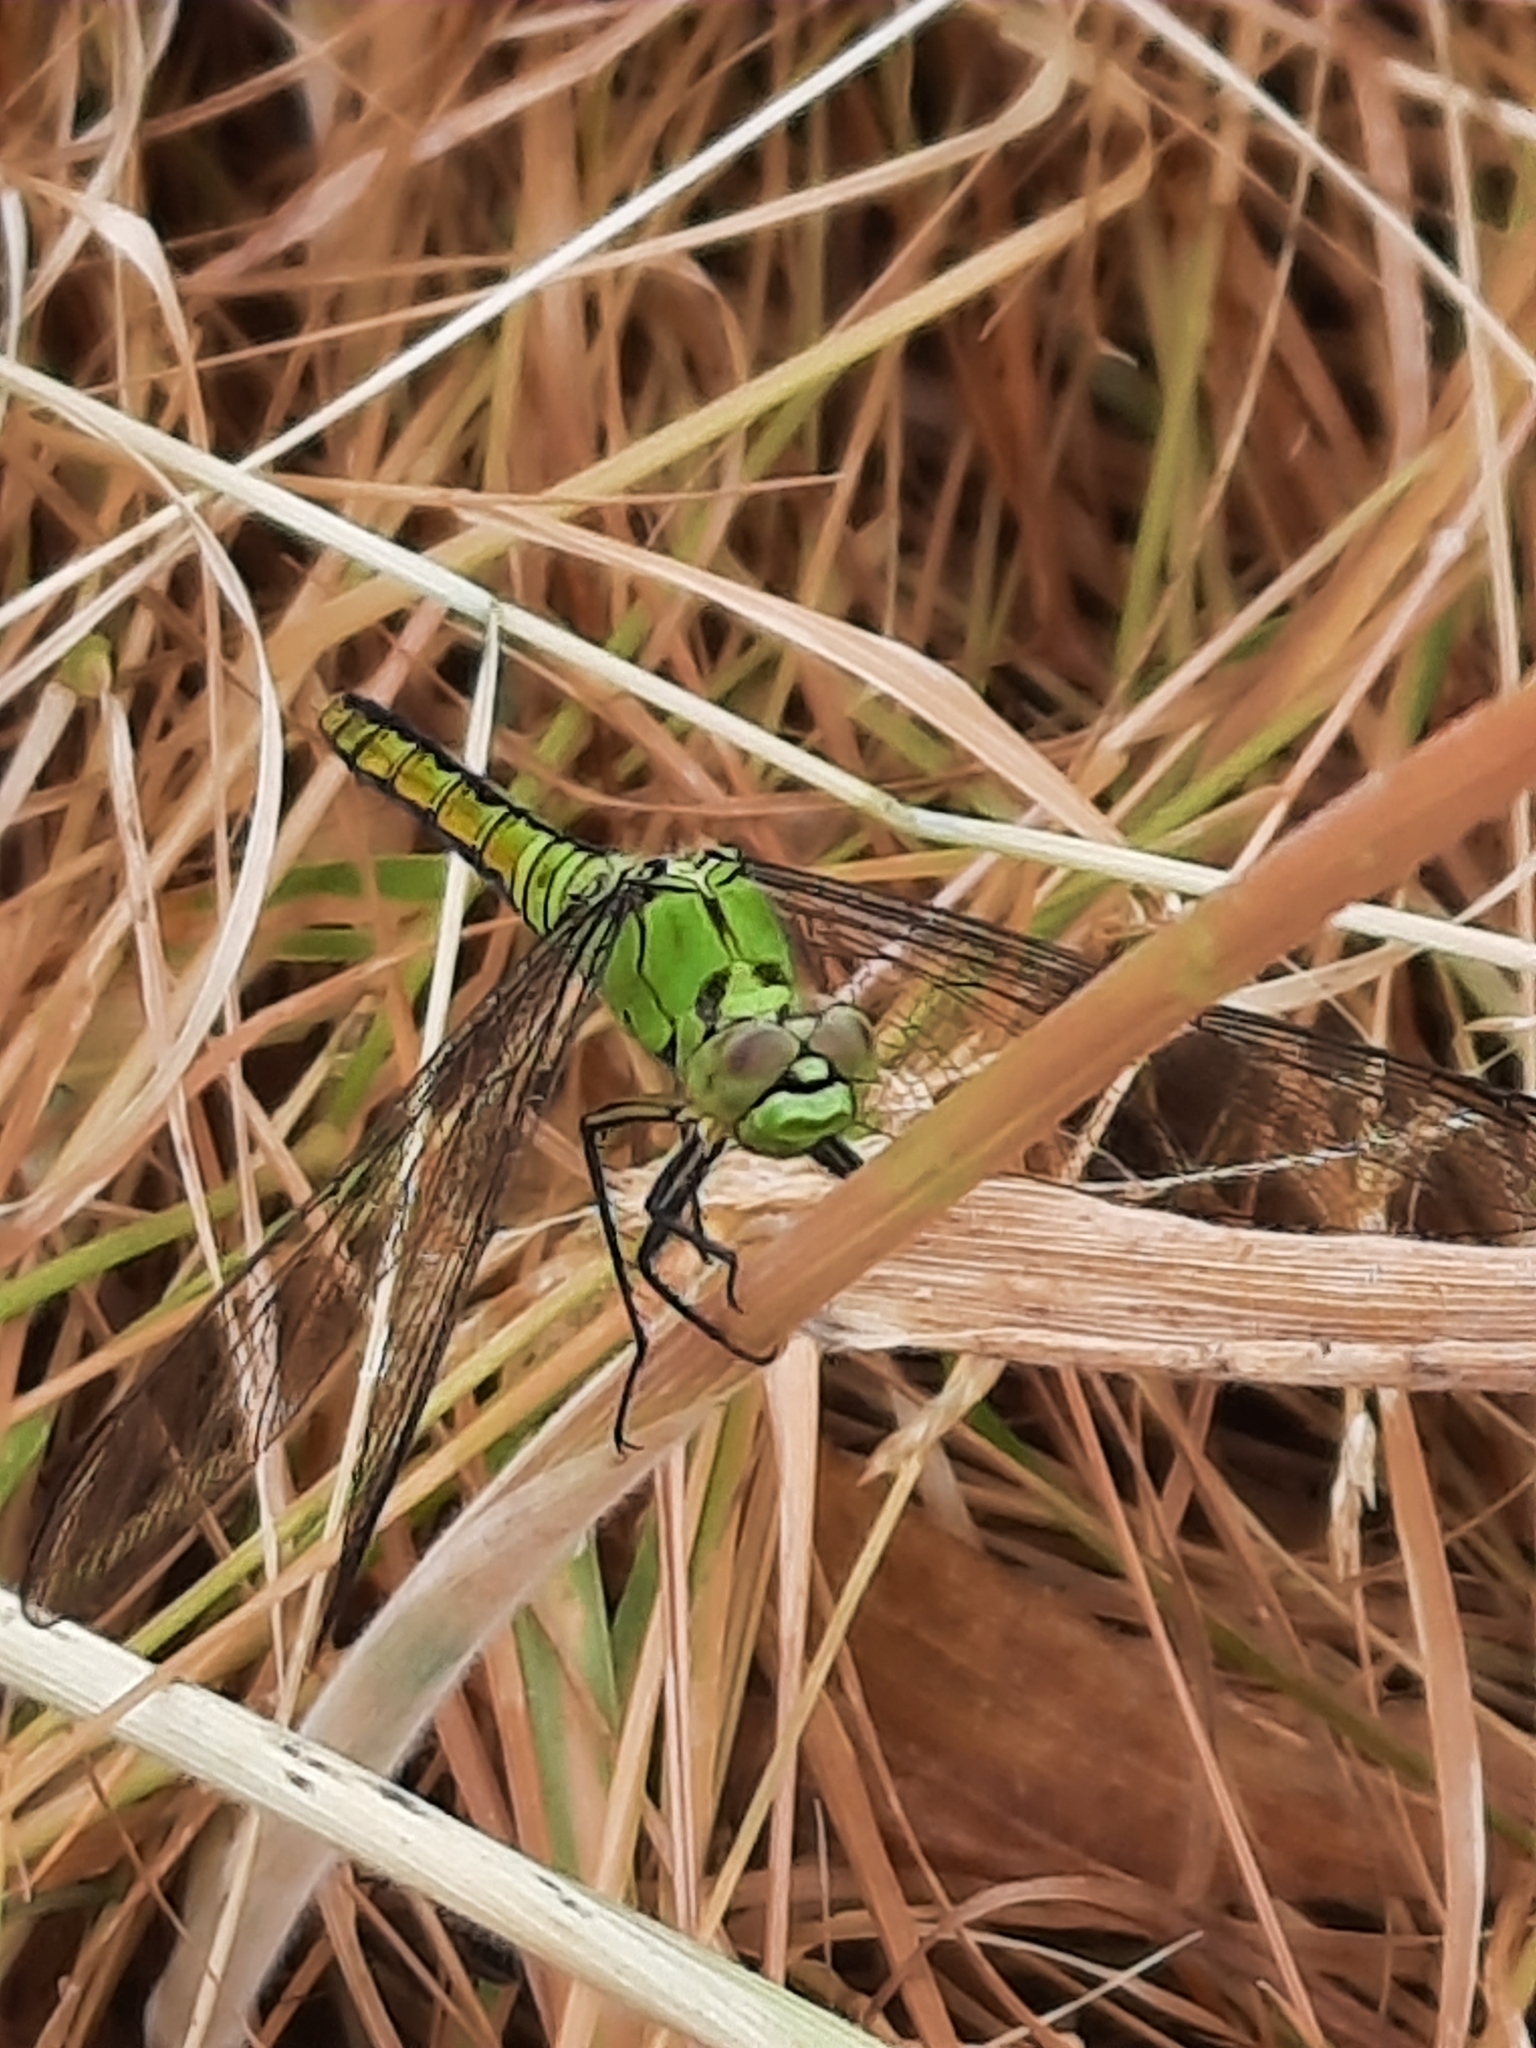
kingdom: Animalia
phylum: Arthropoda
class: Insecta
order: Odonata
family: Libellulidae
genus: Erythemis
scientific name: Erythemis collocata
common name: Western pondhawk
